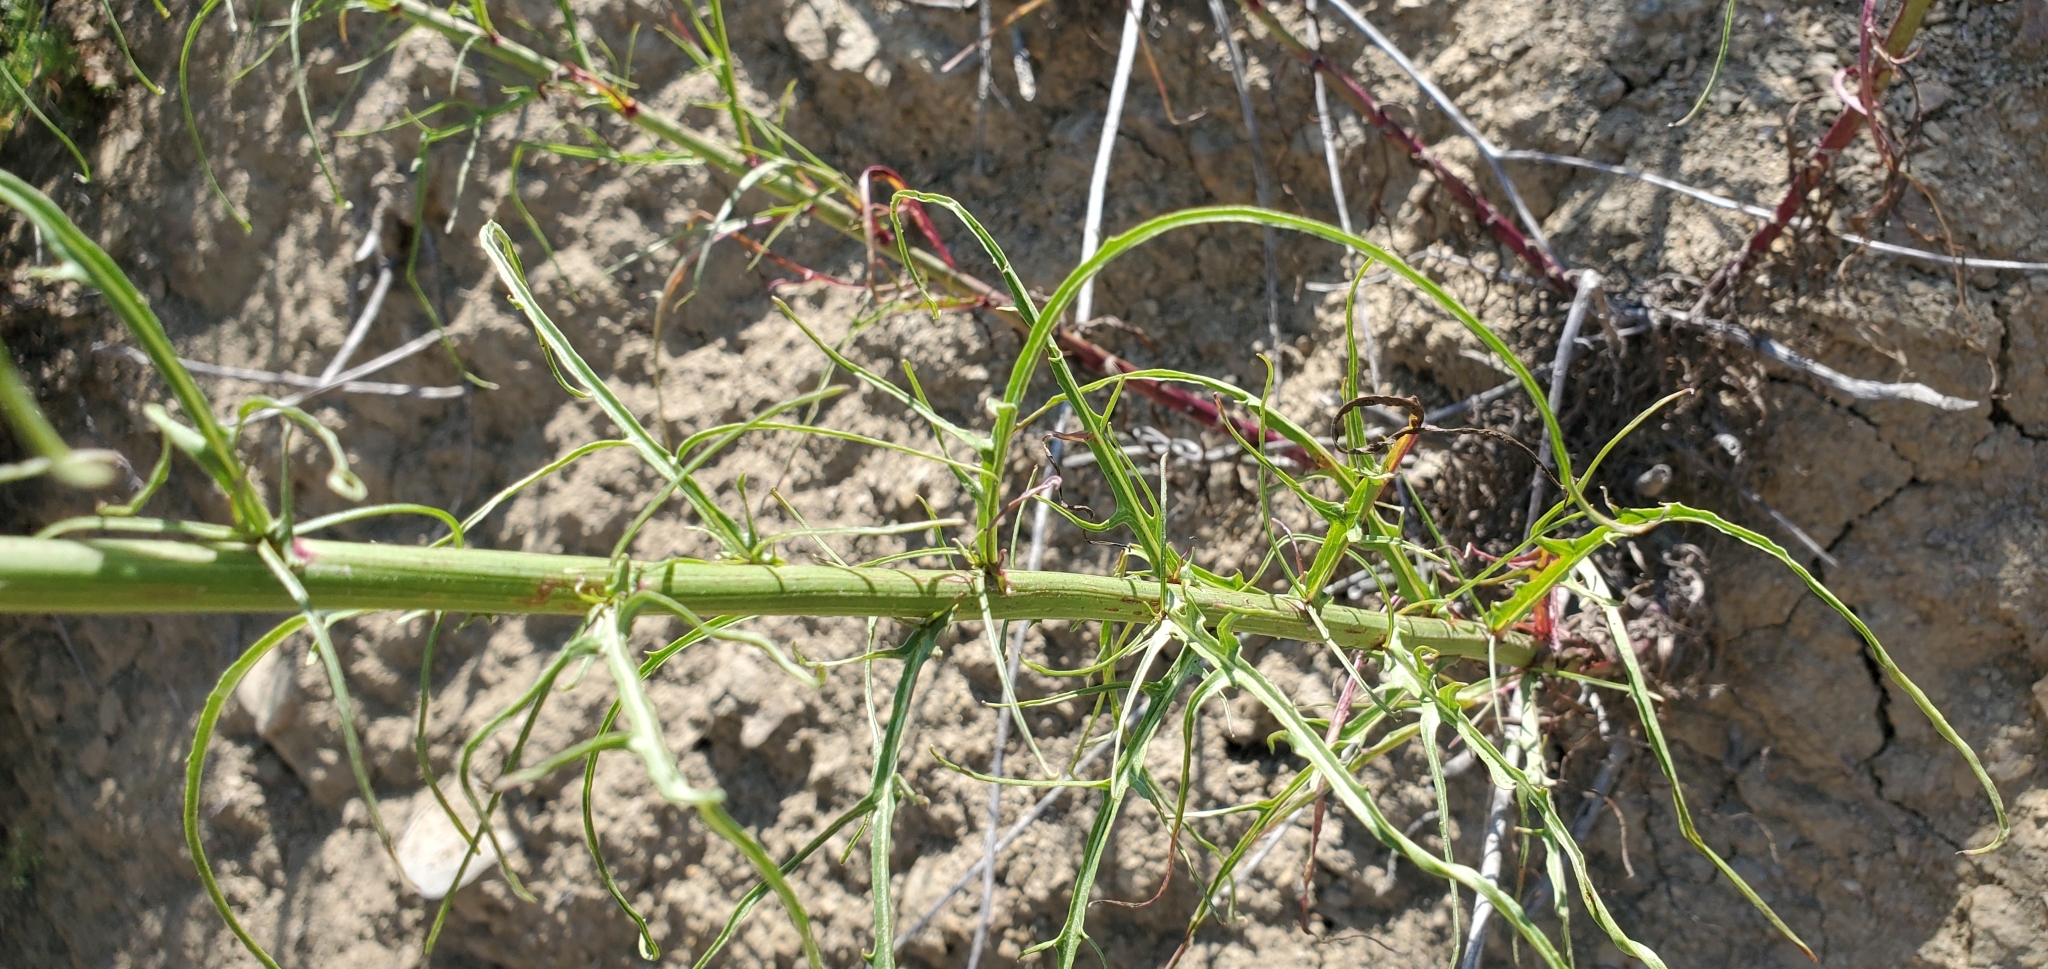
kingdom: Plantae
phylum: Tracheophyta
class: Magnoliopsida
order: Asterales
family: Asteraceae
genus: Malacothrix
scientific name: Malacothrix saxatilis
